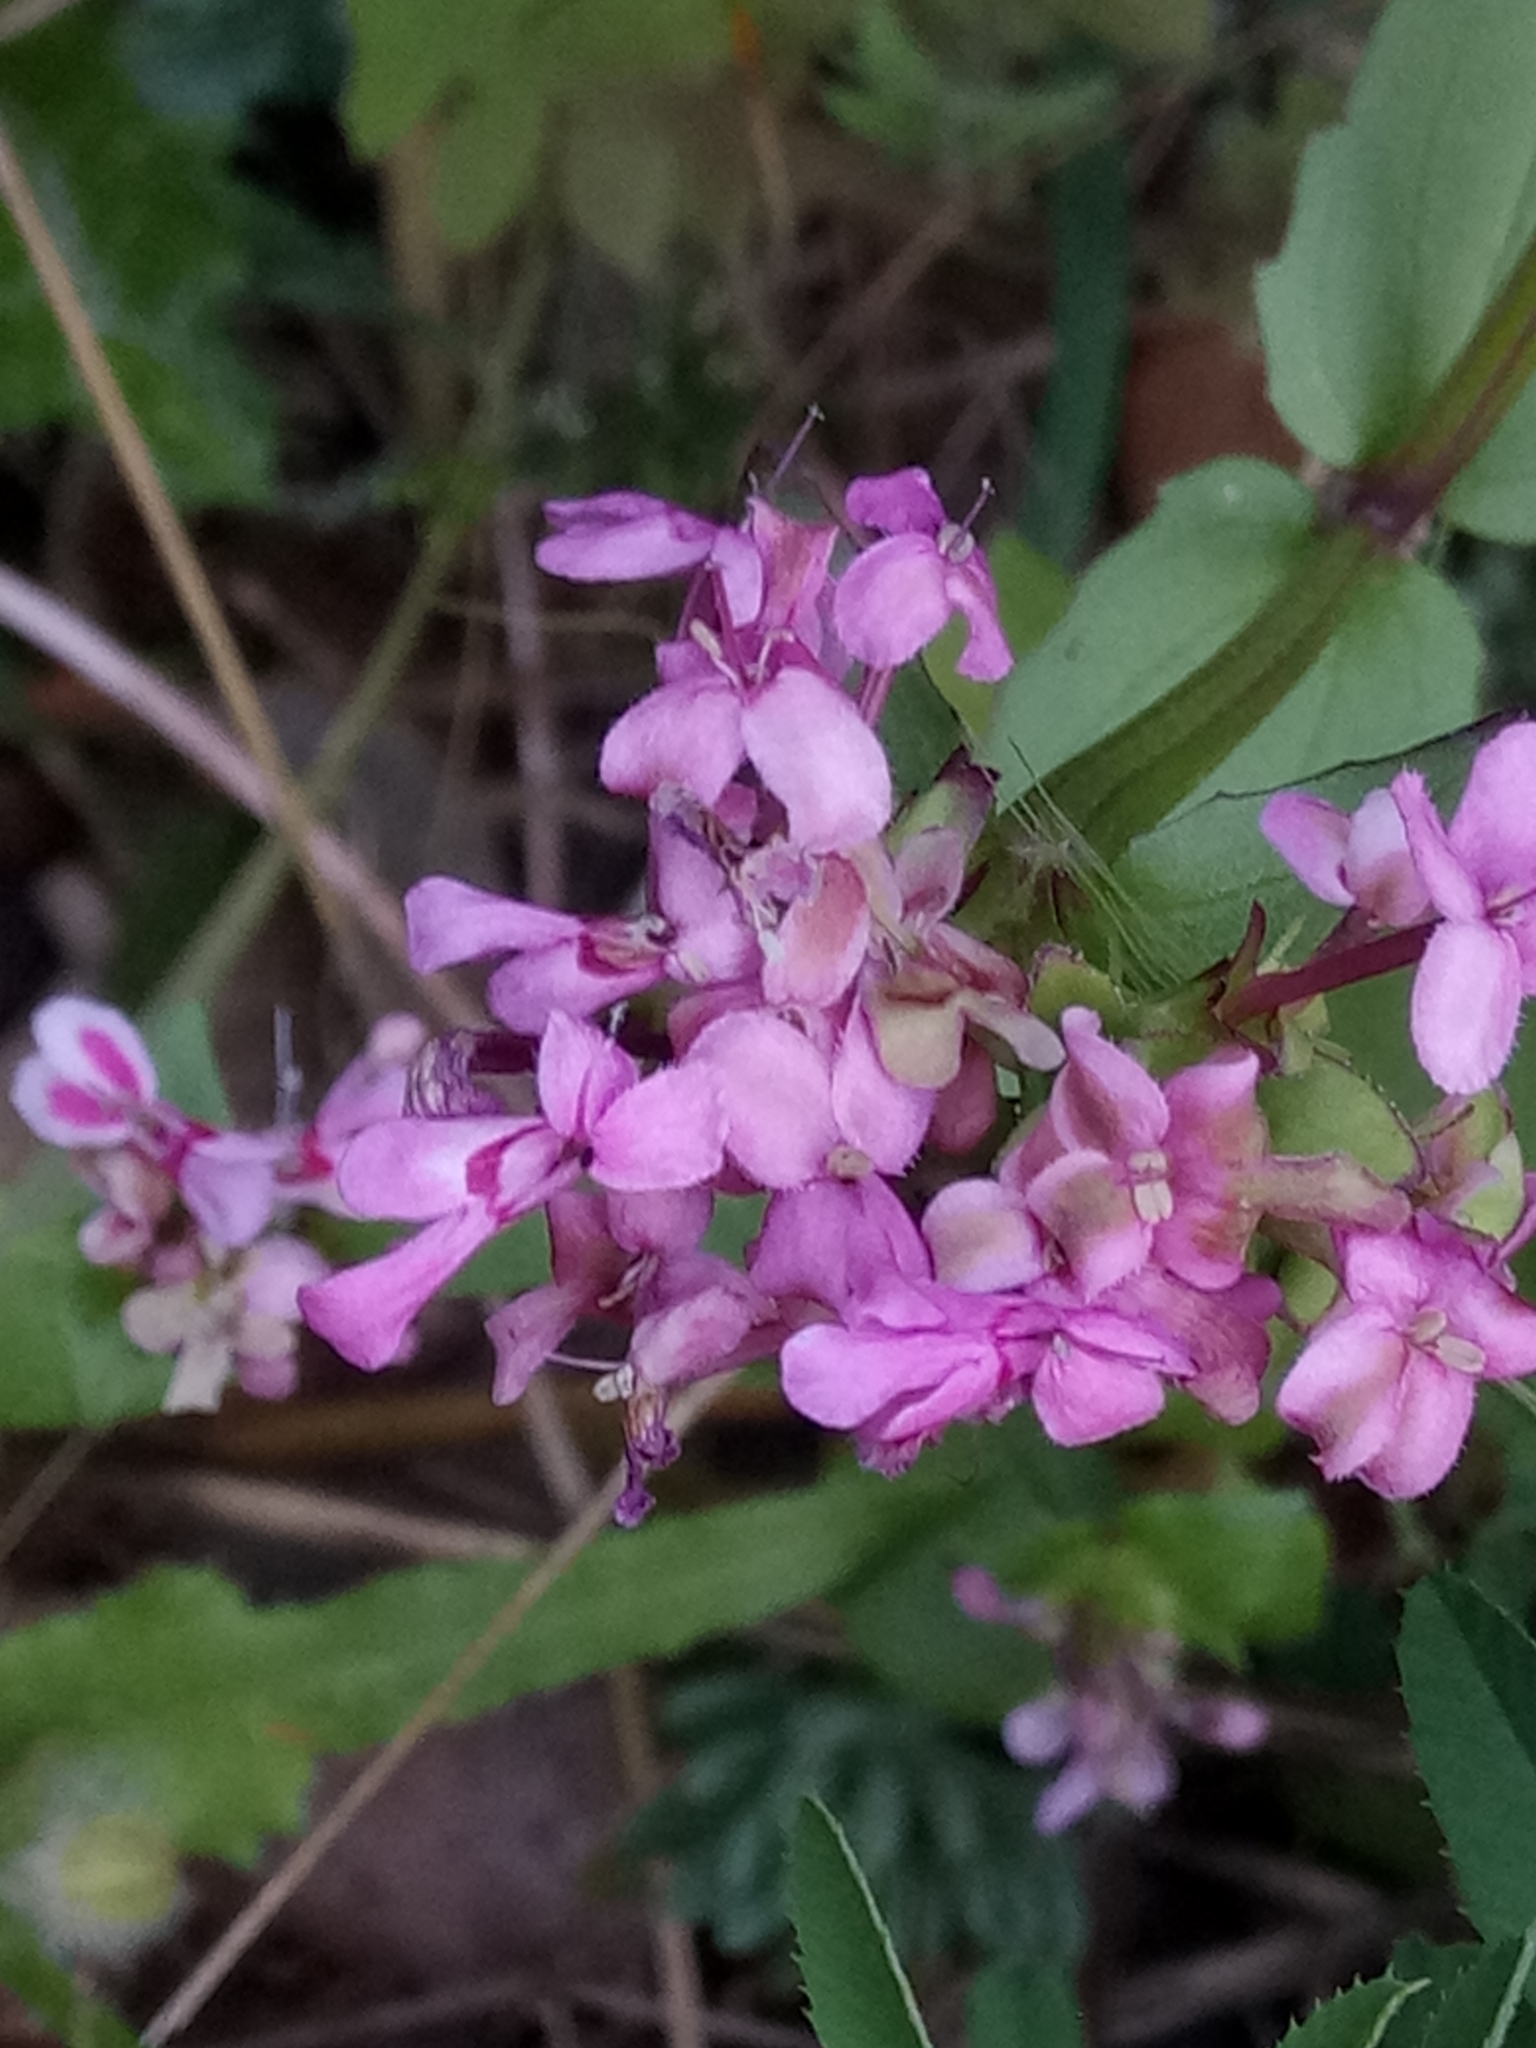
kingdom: Plantae
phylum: Tracheophyta
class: Magnoliopsida
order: Dipsacales
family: Caprifoliaceae
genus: Fedia
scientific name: Fedia graciliflora
